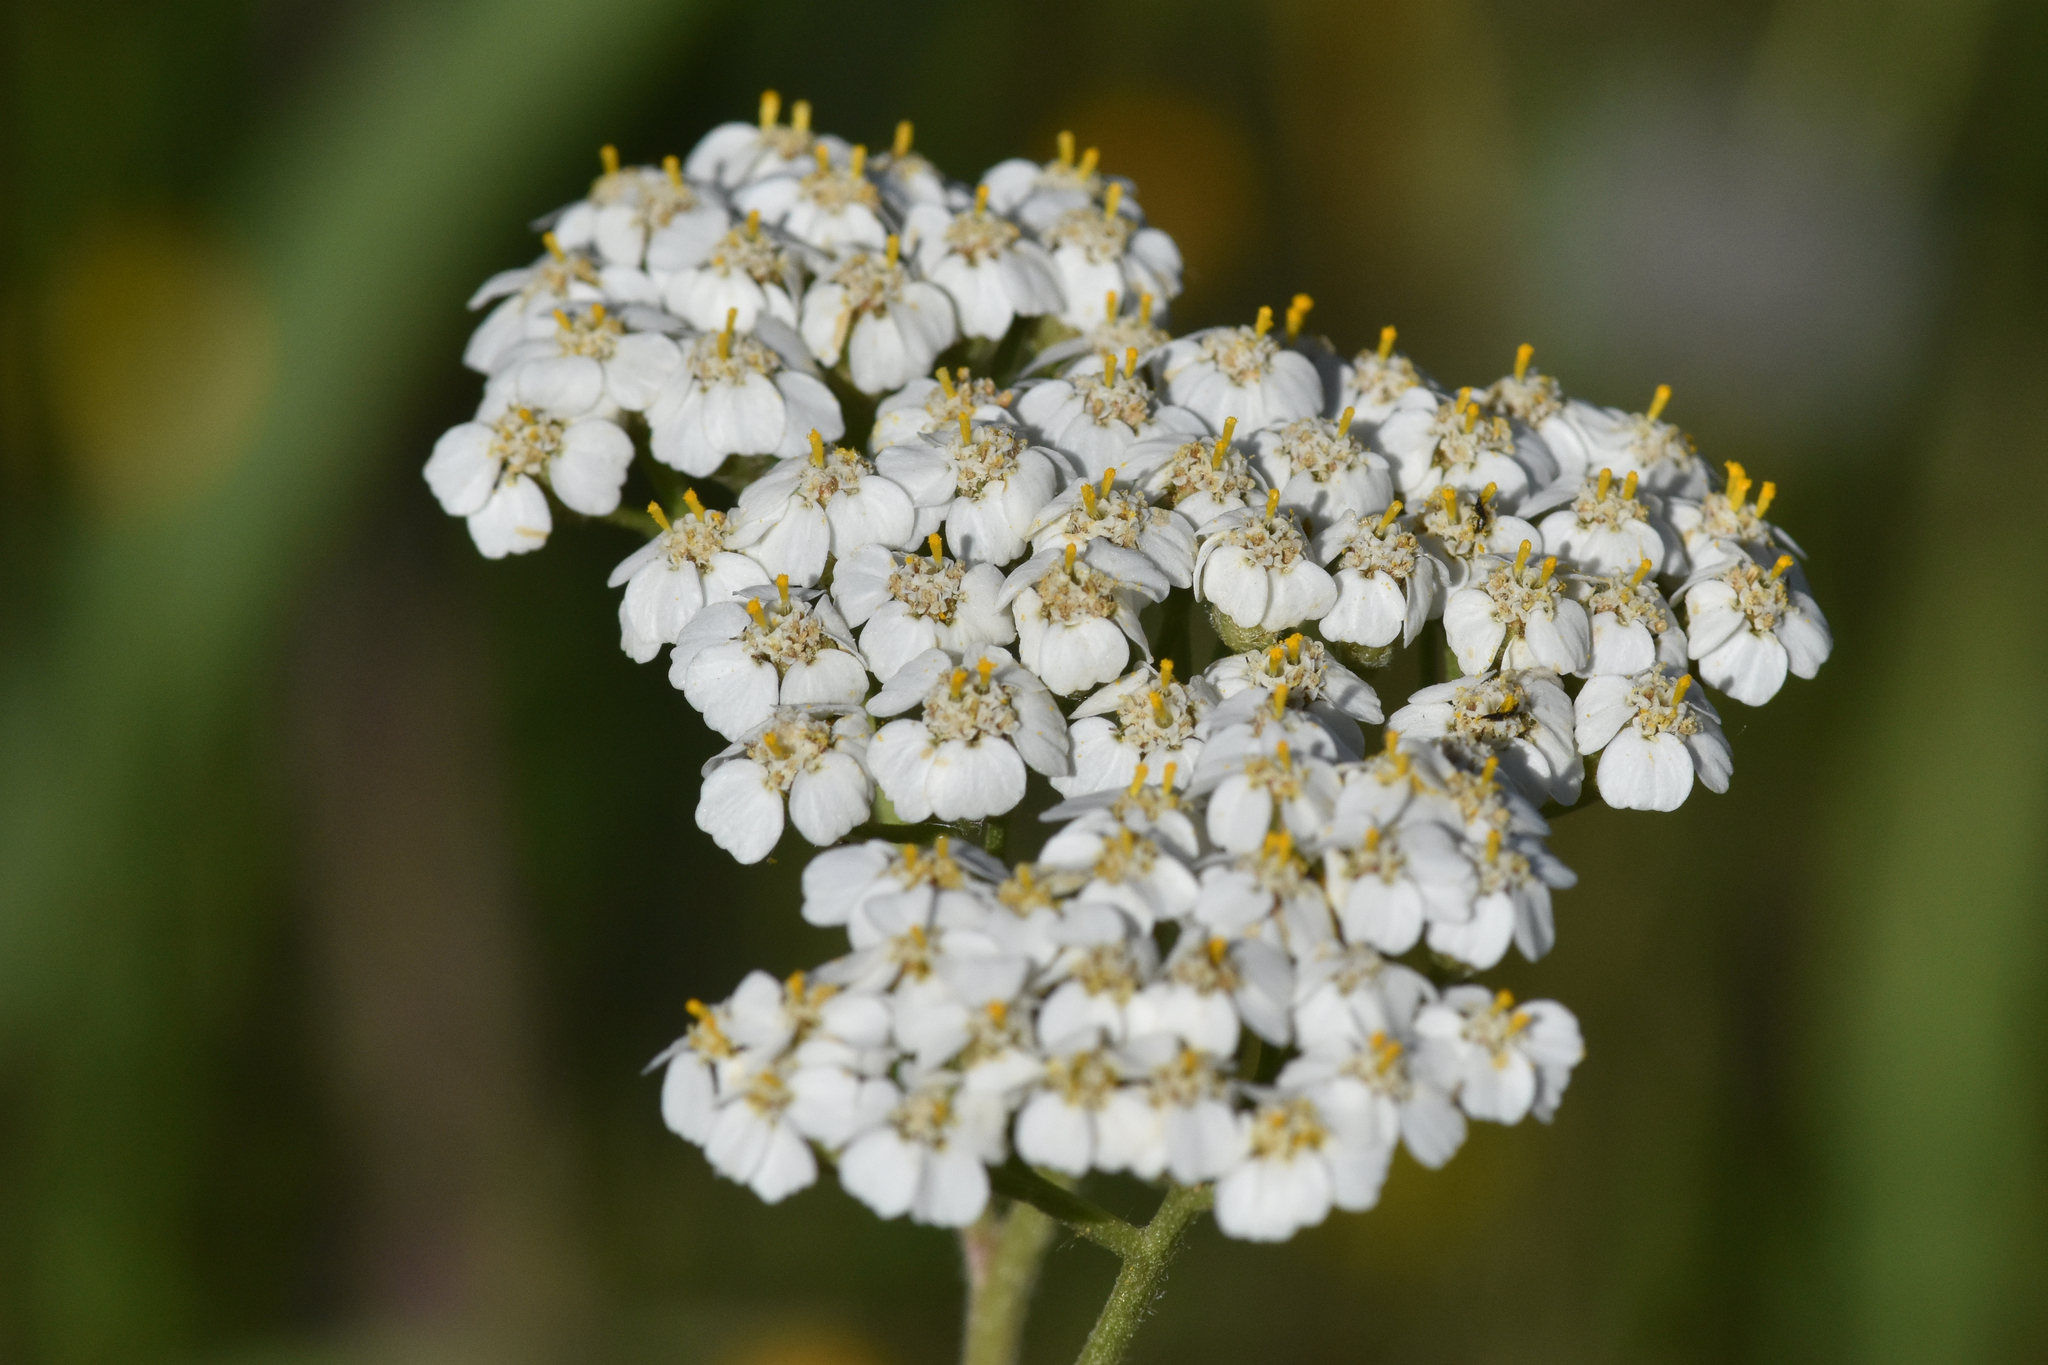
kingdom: Plantae
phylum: Tracheophyta
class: Magnoliopsida
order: Asterales
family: Asteraceae
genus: Achillea
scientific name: Achillea millefolium
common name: Yarrow
